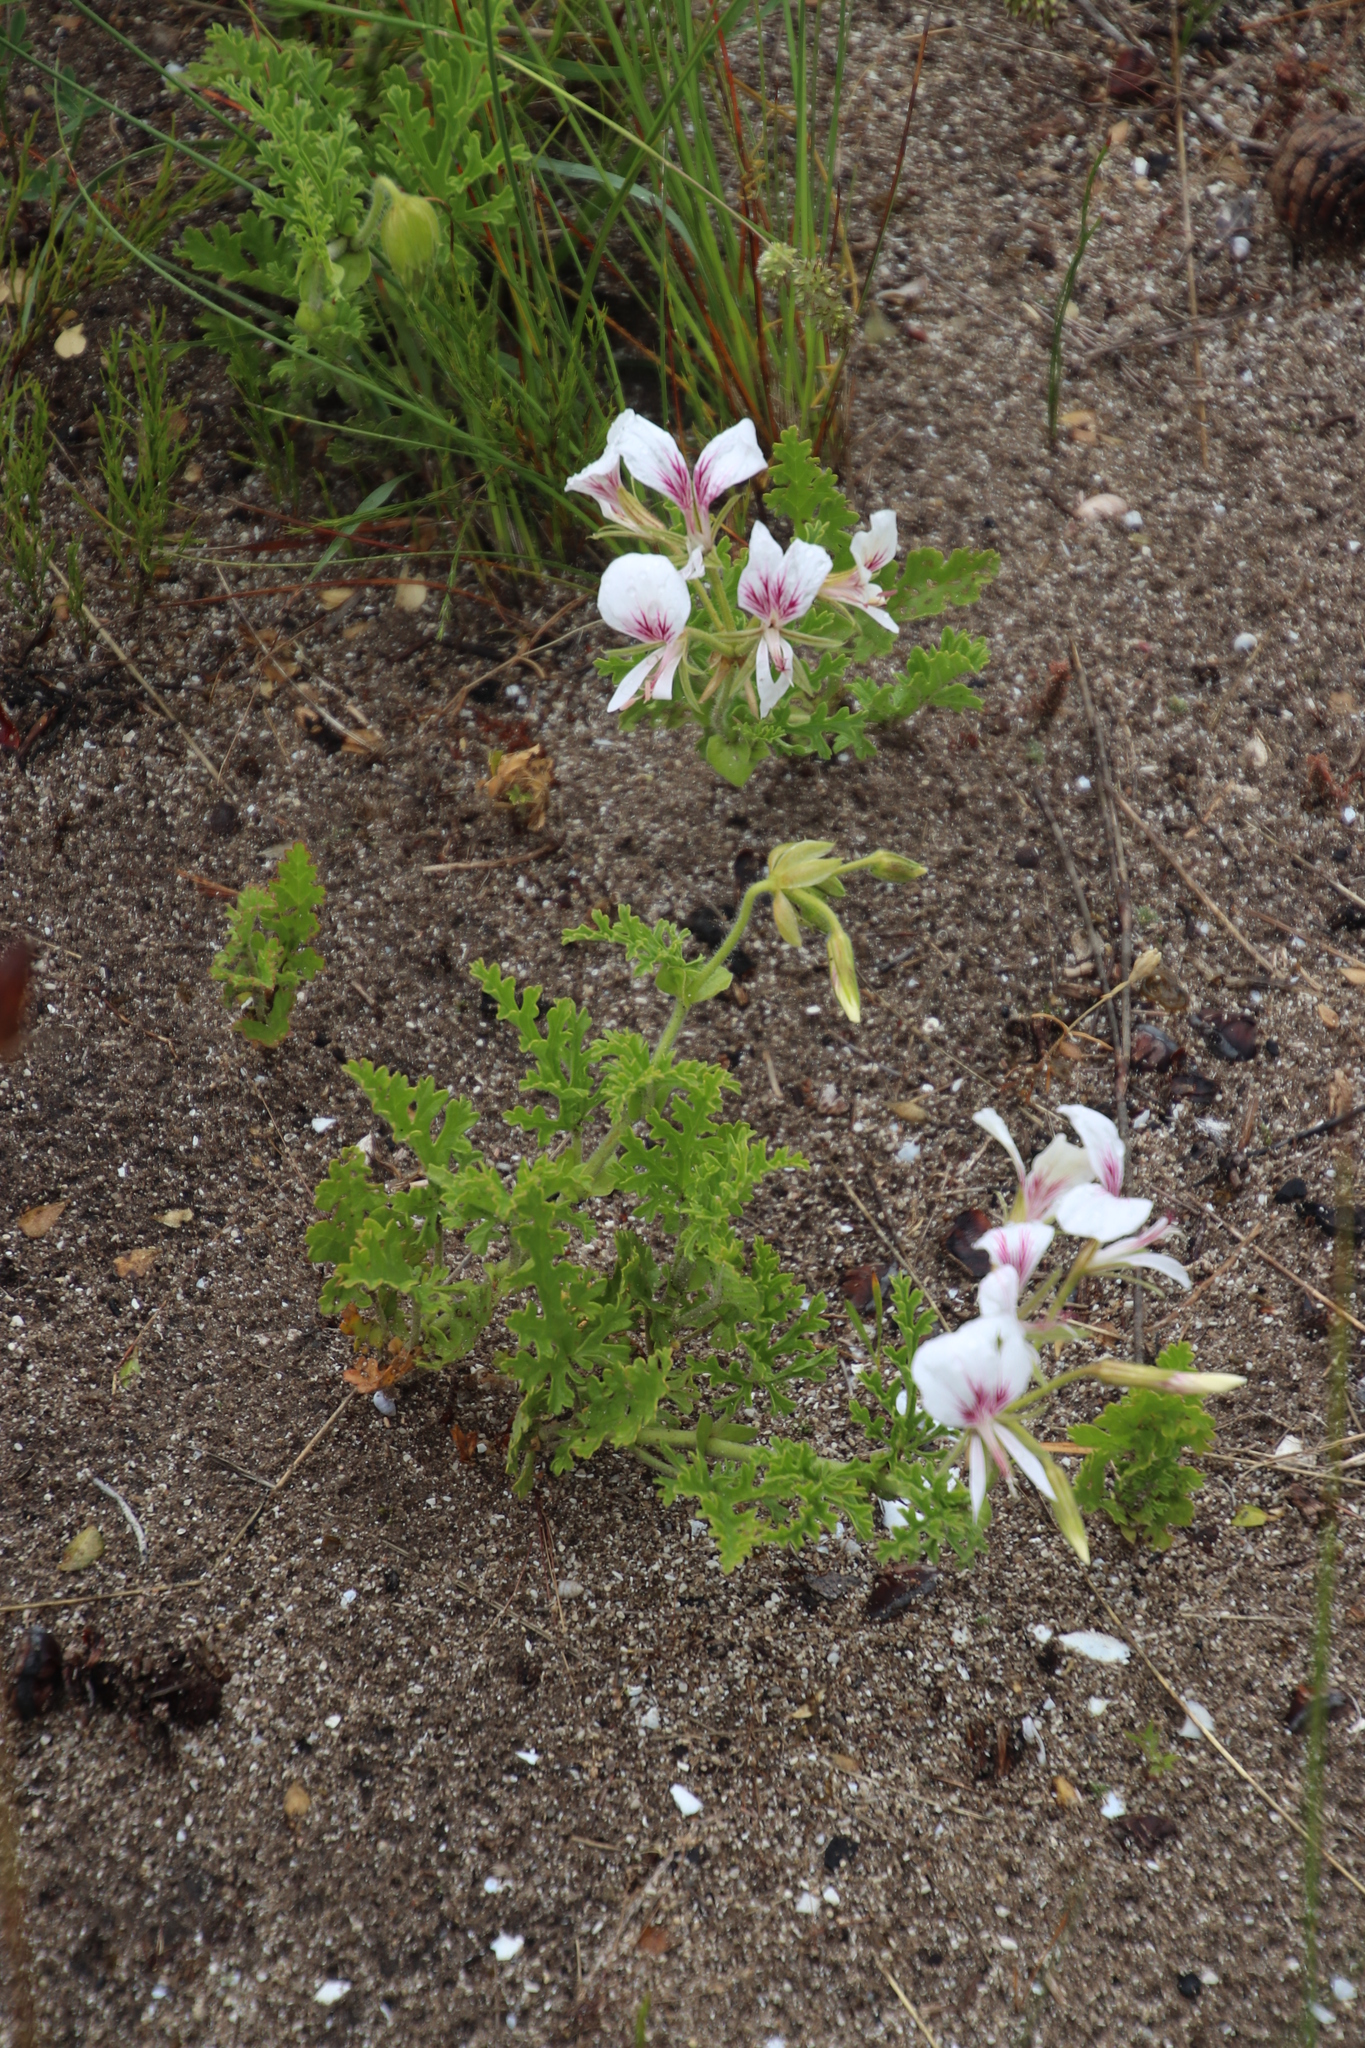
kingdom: Plantae
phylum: Tracheophyta
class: Magnoliopsida
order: Geraniales
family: Geraniaceae
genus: Pelargonium
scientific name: Pelargonium suburbanum
